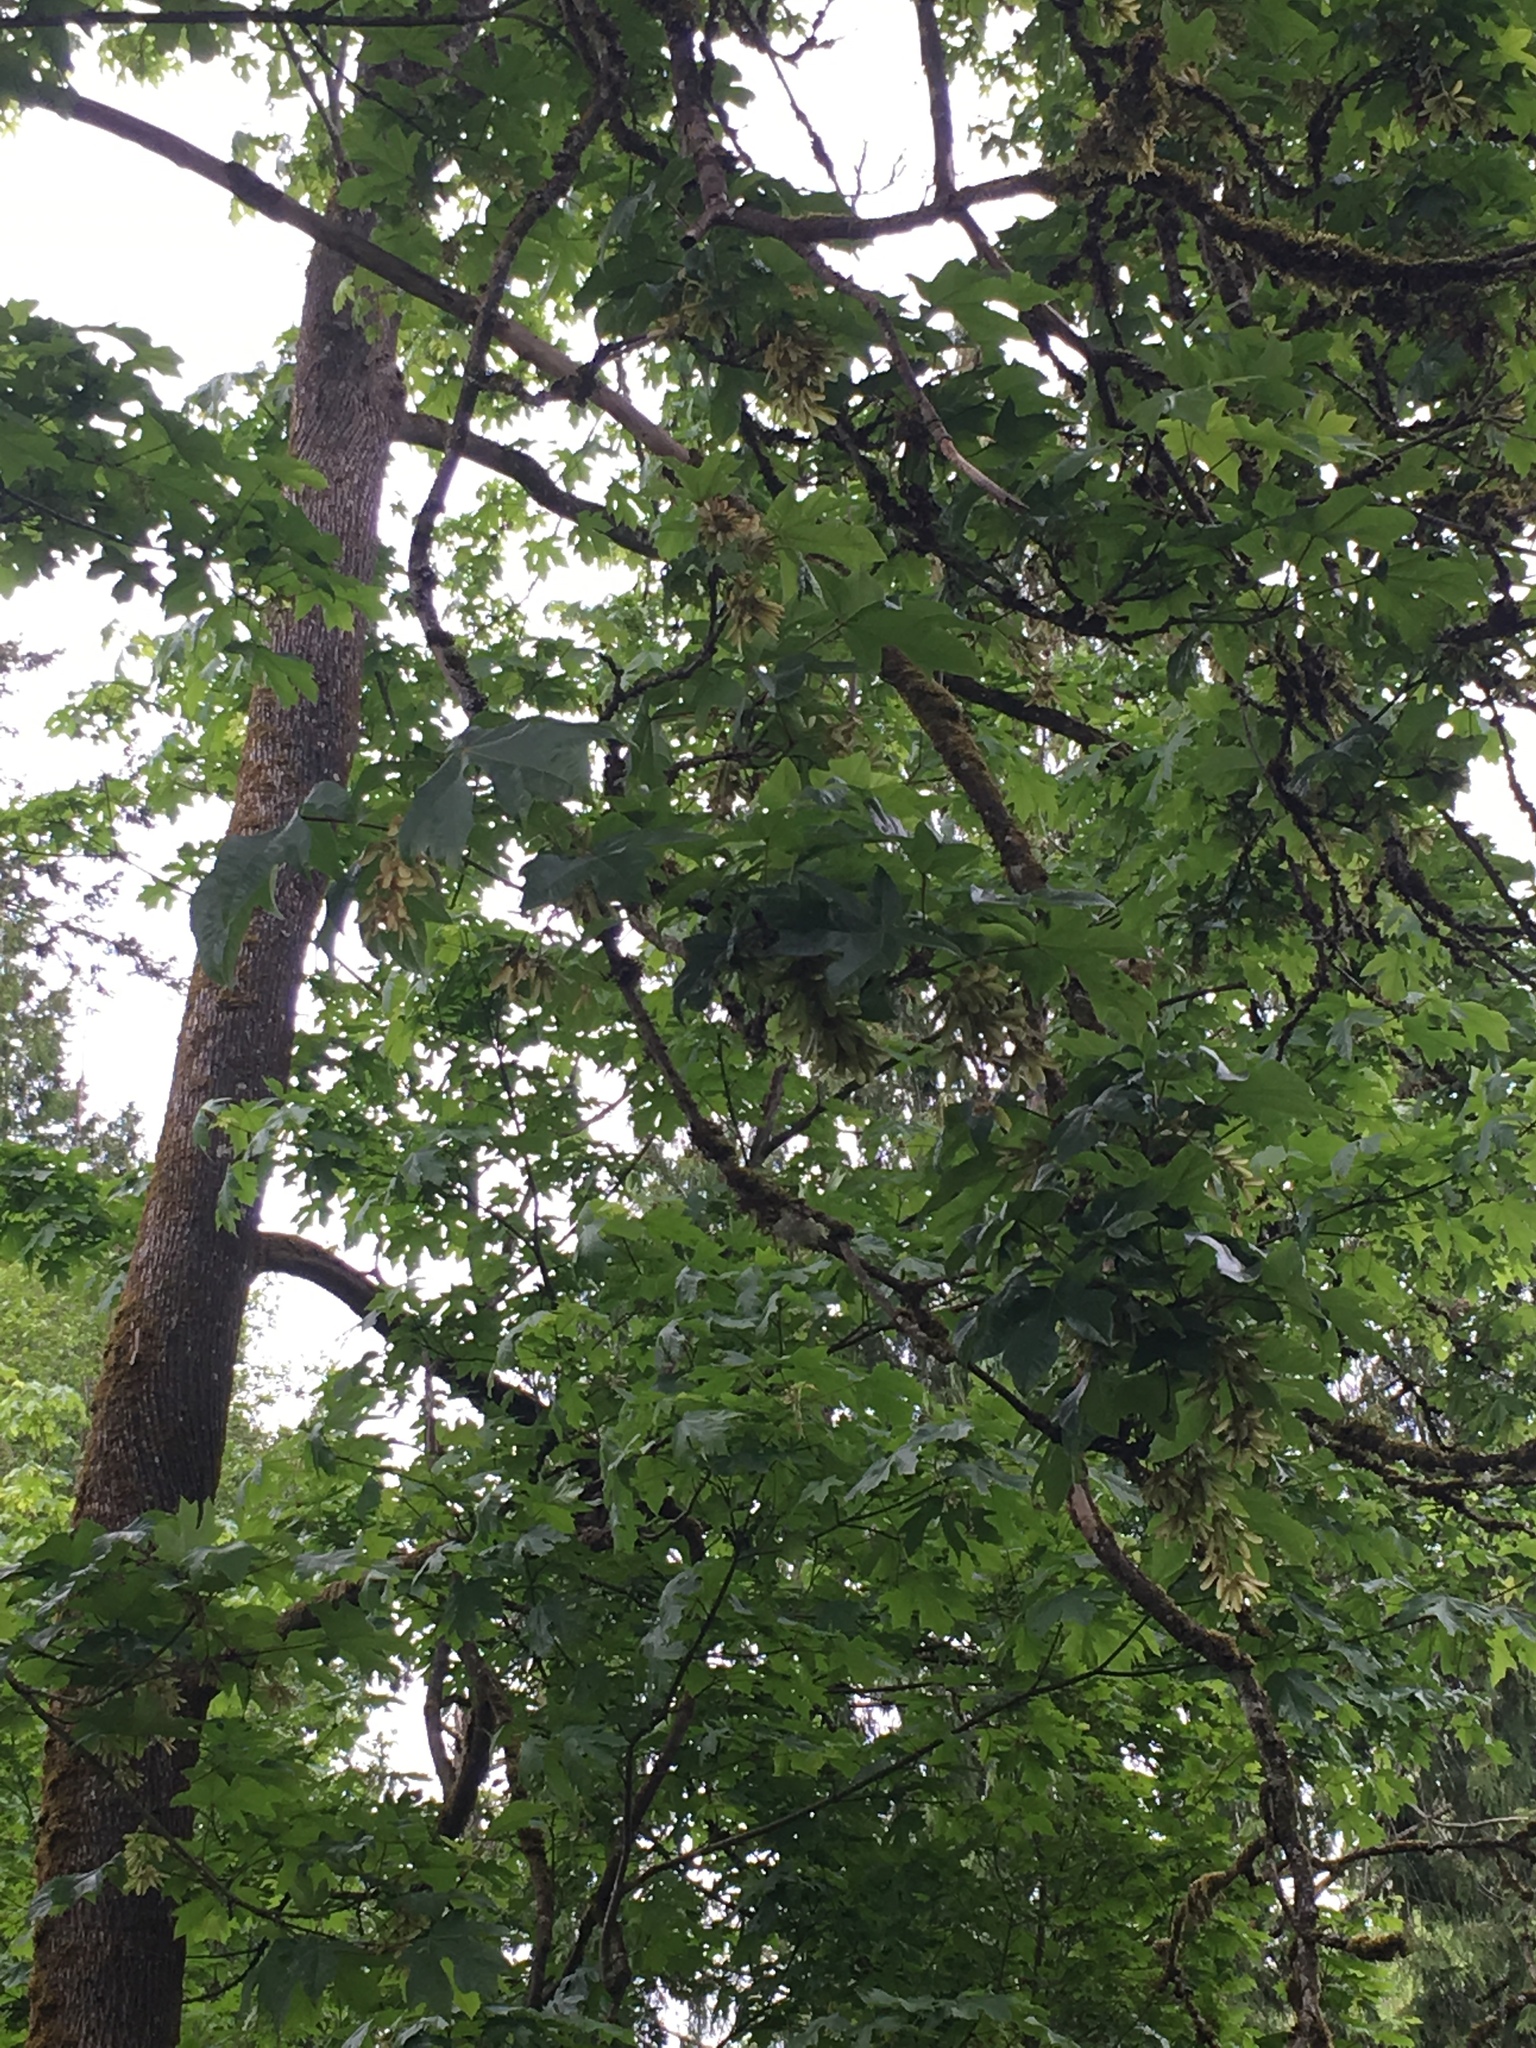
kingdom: Plantae
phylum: Tracheophyta
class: Magnoliopsida
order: Sapindales
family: Sapindaceae
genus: Acer
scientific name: Acer macrophyllum
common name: Oregon maple
